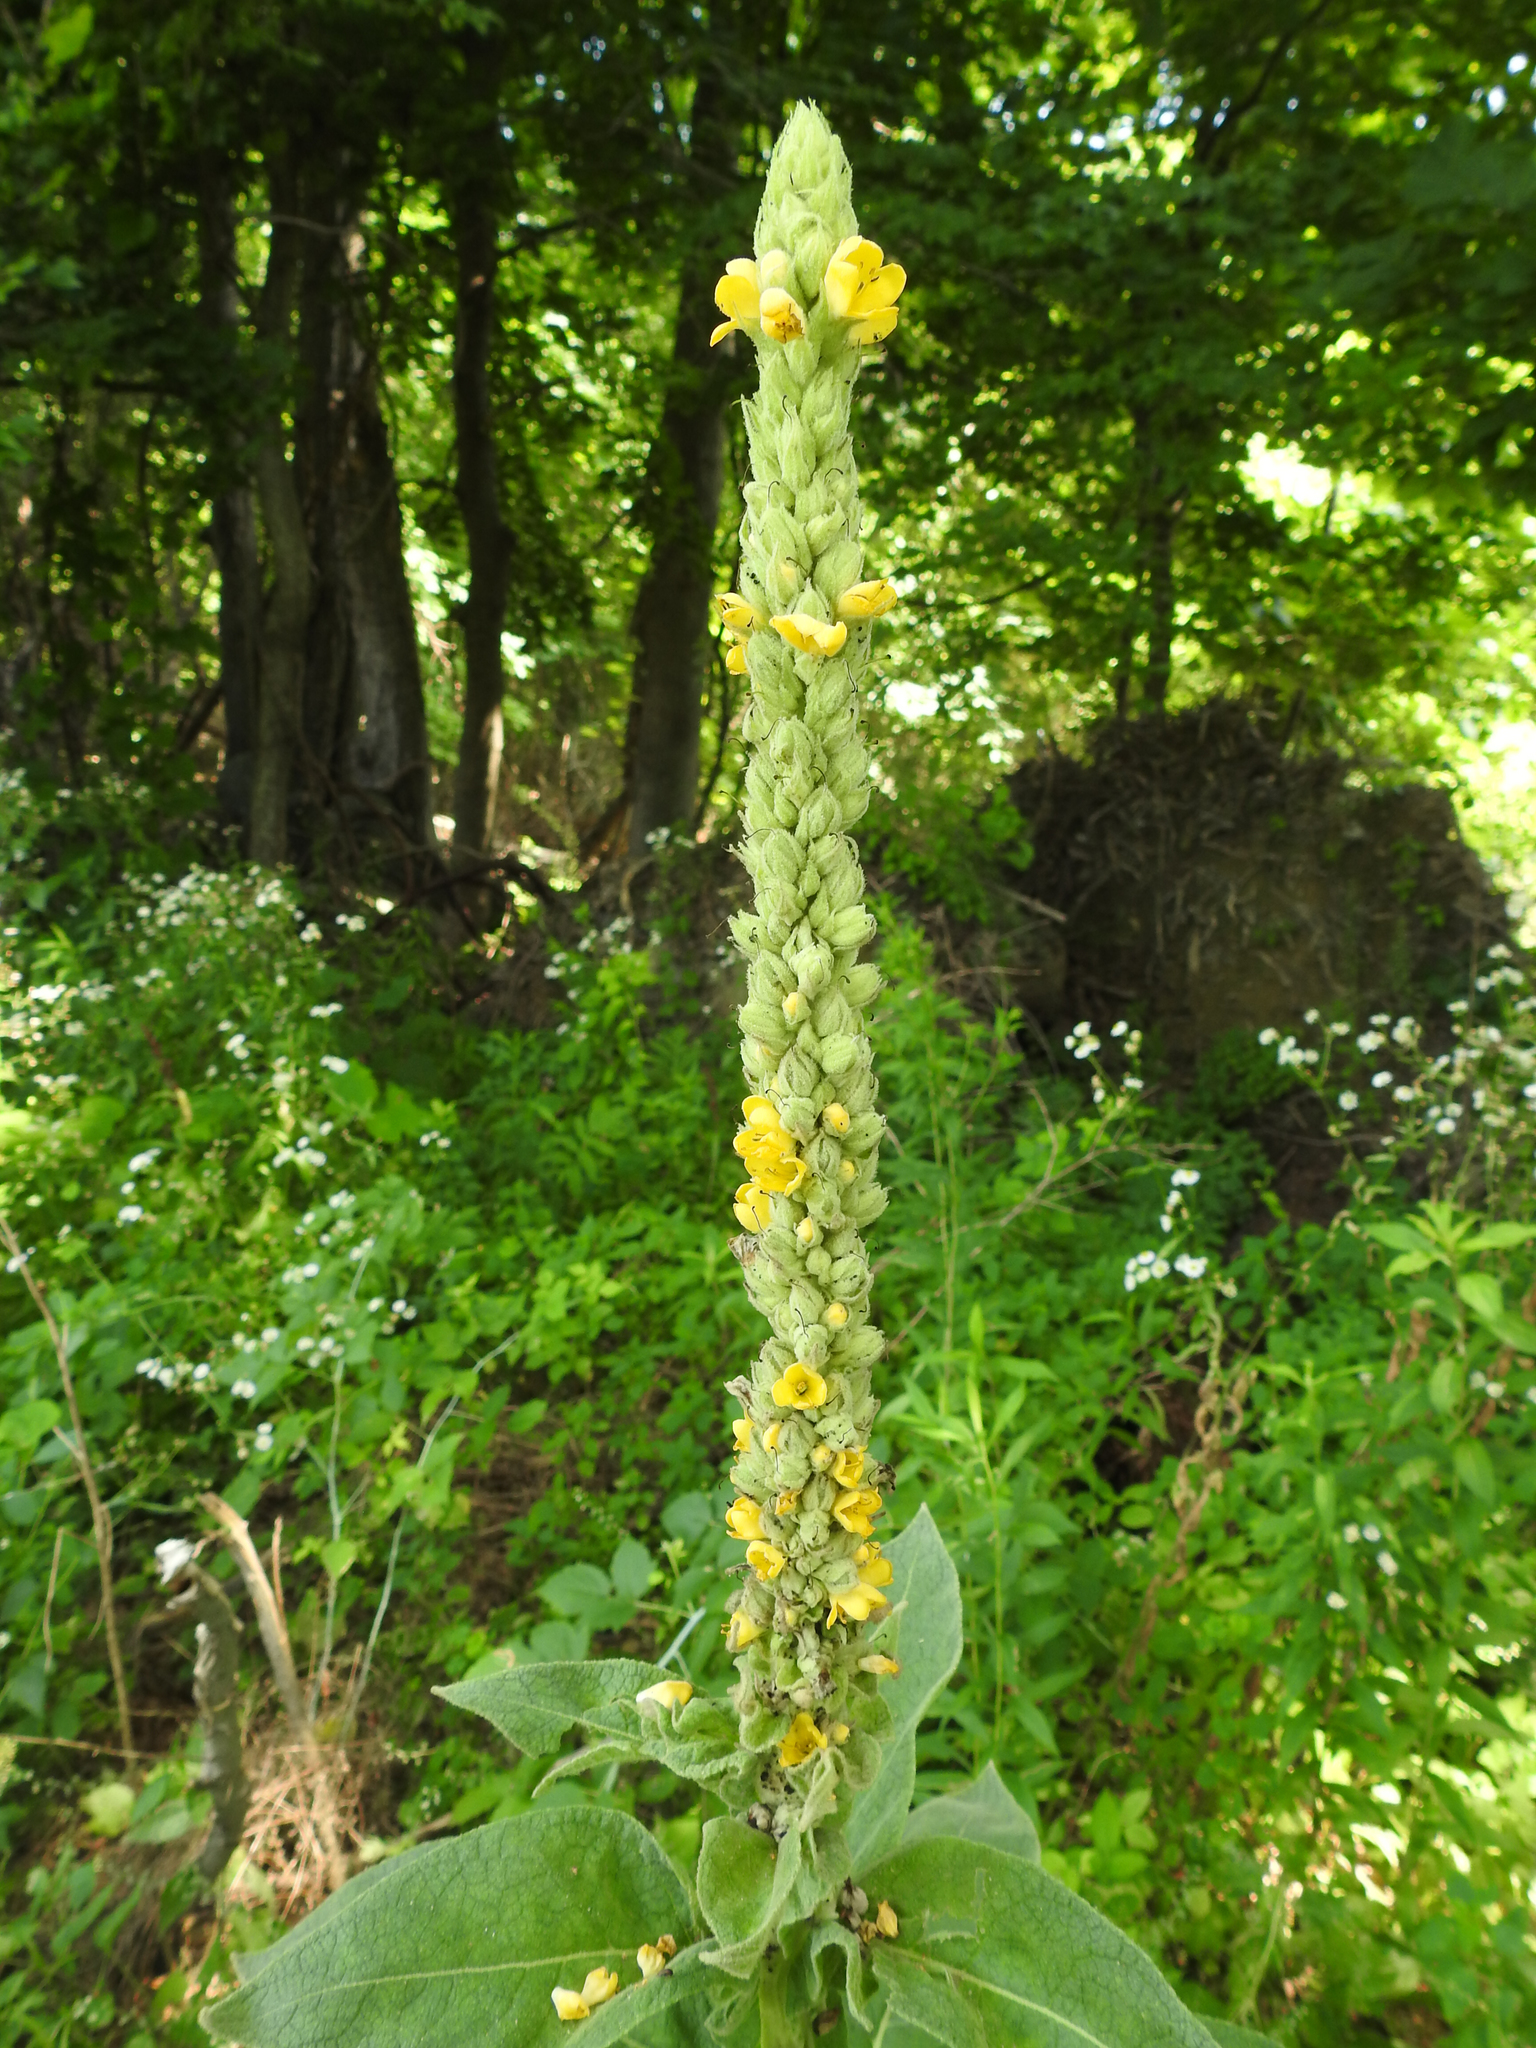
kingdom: Plantae
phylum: Tracheophyta
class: Magnoliopsida
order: Lamiales
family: Scrophulariaceae
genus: Verbascum
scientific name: Verbascum thapsus
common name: Common mullein
